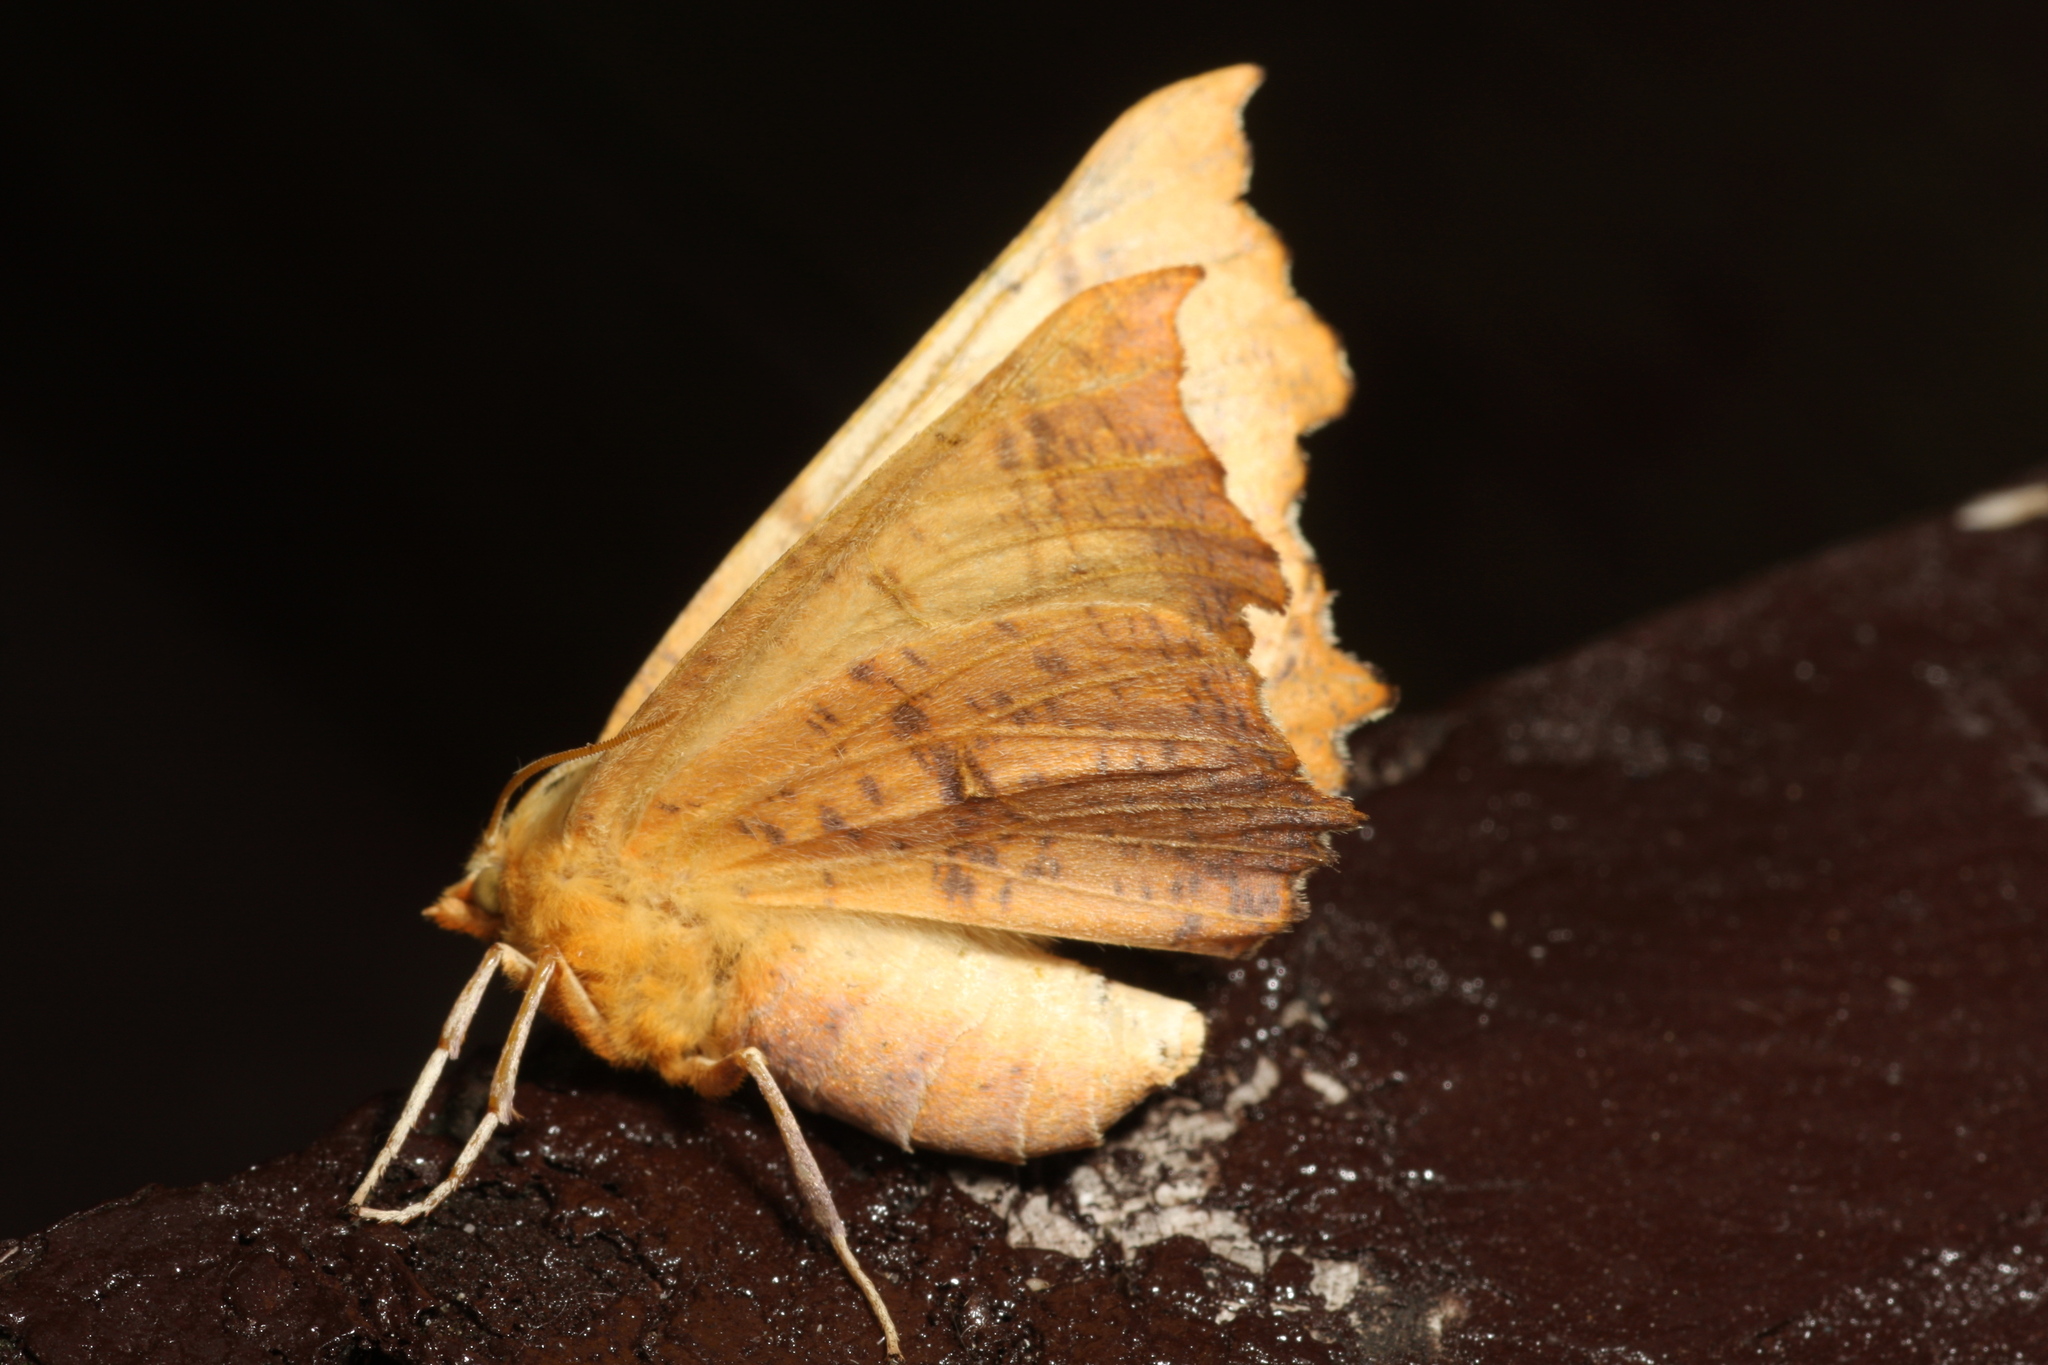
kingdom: Animalia
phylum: Arthropoda
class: Insecta
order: Lepidoptera
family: Geometridae
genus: Ennomos
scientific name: Ennomos autumnaria
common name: Large thorn
